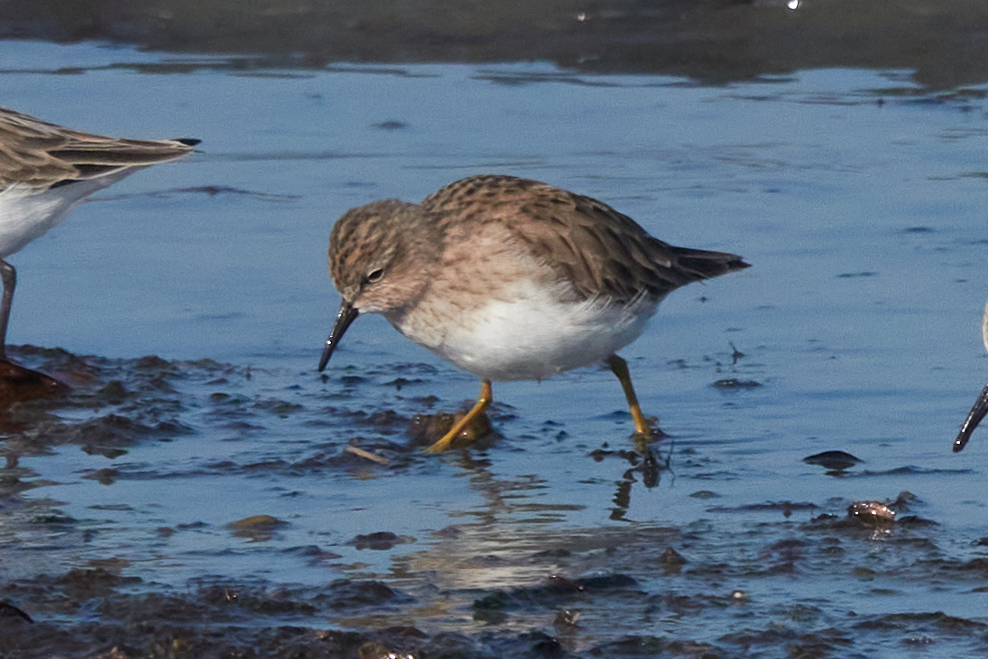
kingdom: Animalia
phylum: Chordata
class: Aves
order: Charadriiformes
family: Scolopacidae
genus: Calidris
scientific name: Calidris minutilla
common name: Least sandpiper
